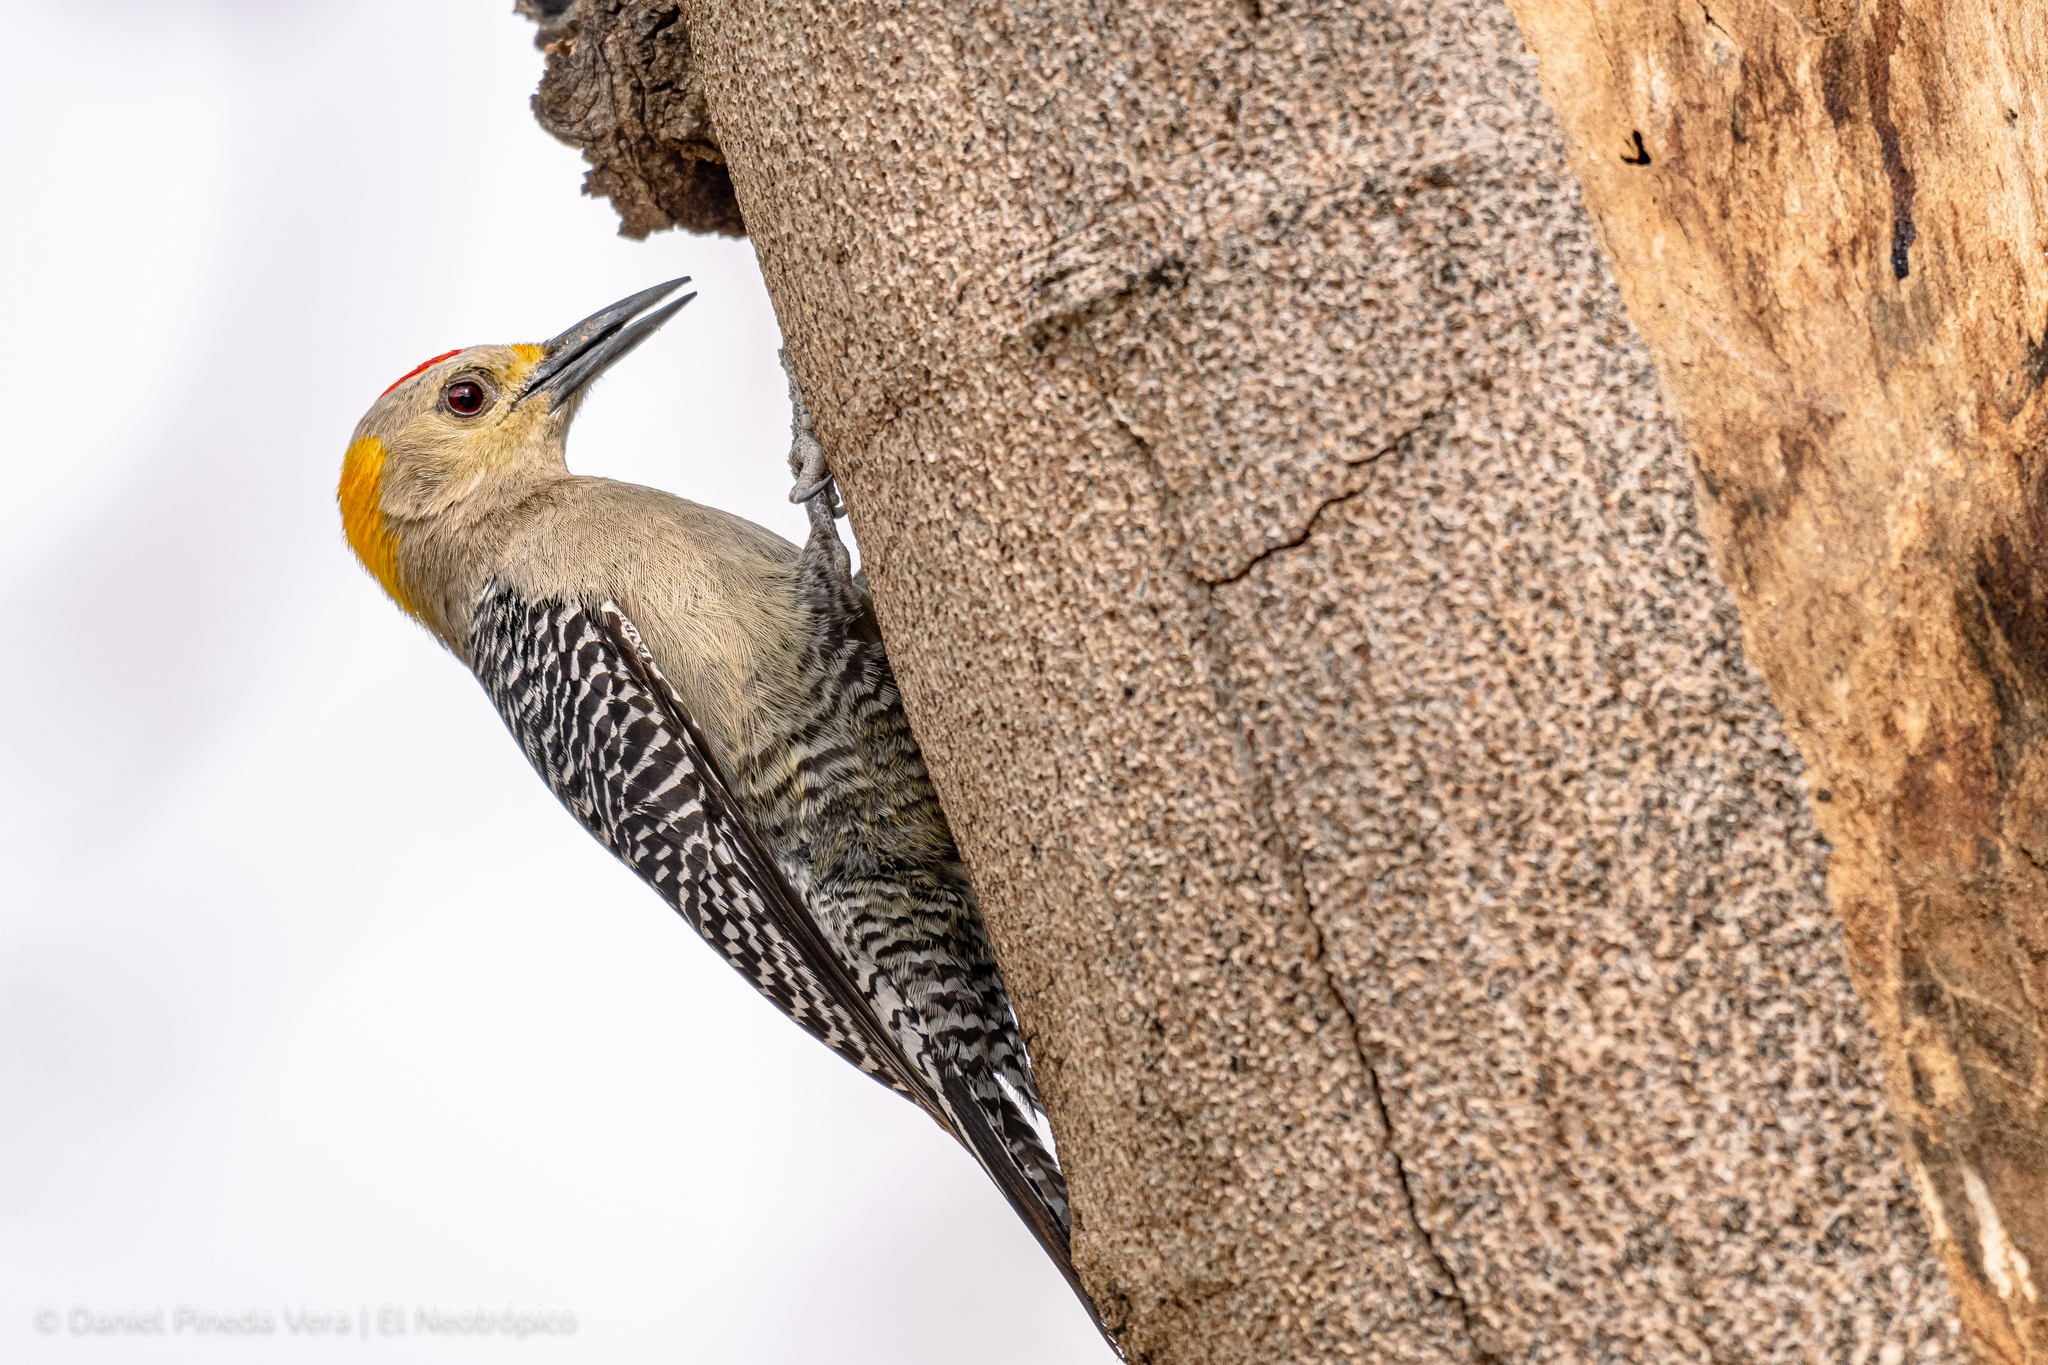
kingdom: Animalia
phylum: Chordata
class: Aves
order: Piciformes
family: Picidae
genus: Melanerpes
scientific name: Melanerpes aurifrons
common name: Golden-fronted woodpecker
